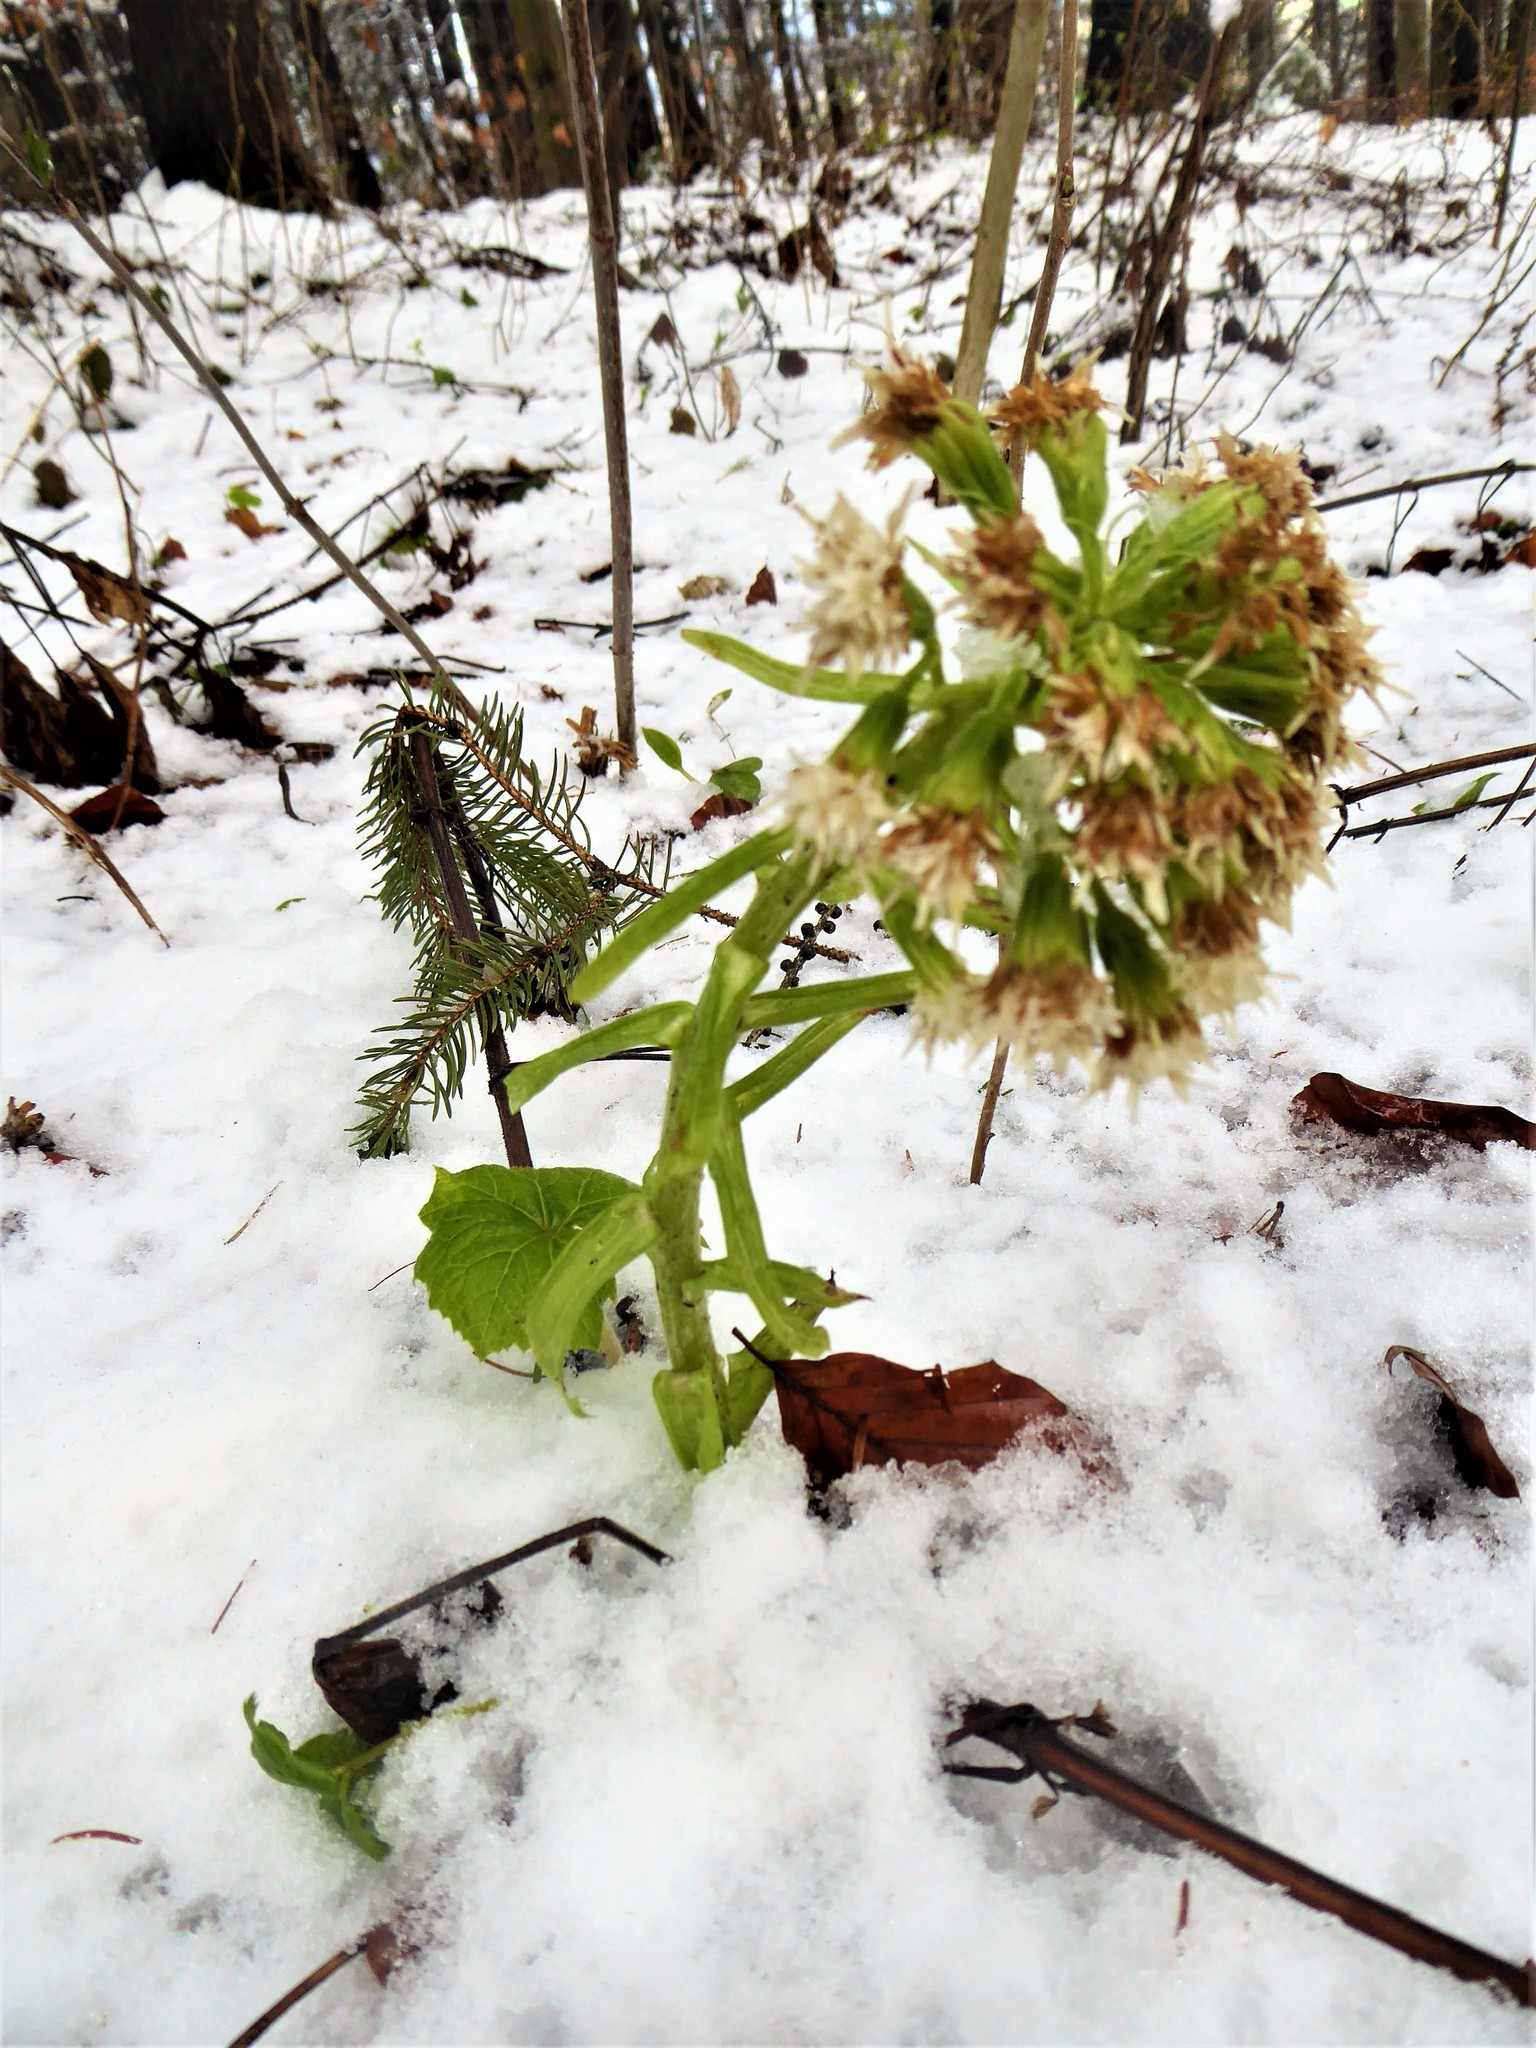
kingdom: Plantae
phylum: Tracheophyta
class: Magnoliopsida
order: Asterales
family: Asteraceae
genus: Petasites
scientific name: Petasites albus
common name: White butterbur
